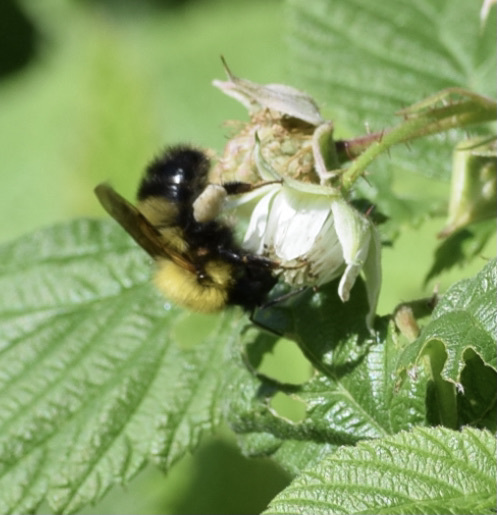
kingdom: Animalia
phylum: Arthropoda
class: Insecta
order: Hymenoptera
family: Apidae
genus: Bombus
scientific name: Bombus perplexus
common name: Confusing bumble bee
